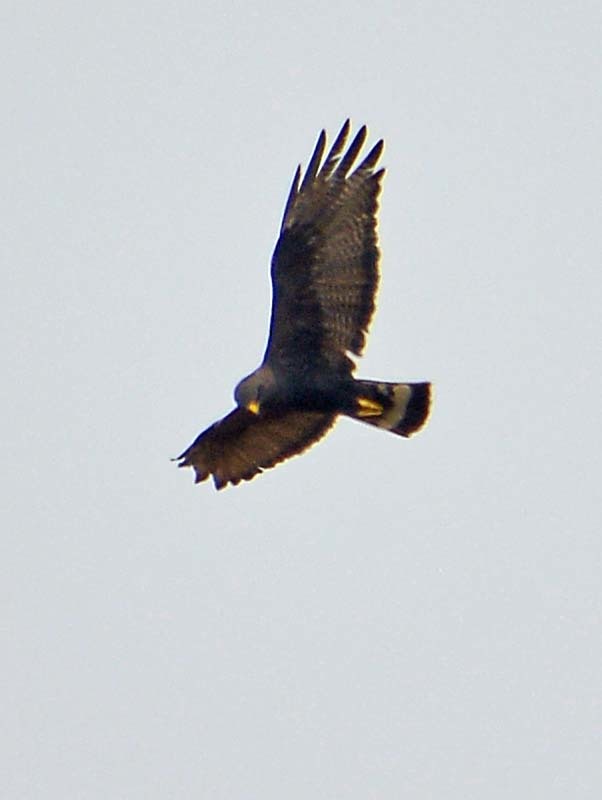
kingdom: Animalia
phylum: Chordata
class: Aves
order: Accipitriformes
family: Accipitridae
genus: Buteo
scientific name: Buteo albonotatus
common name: Zone-tailed hawk
